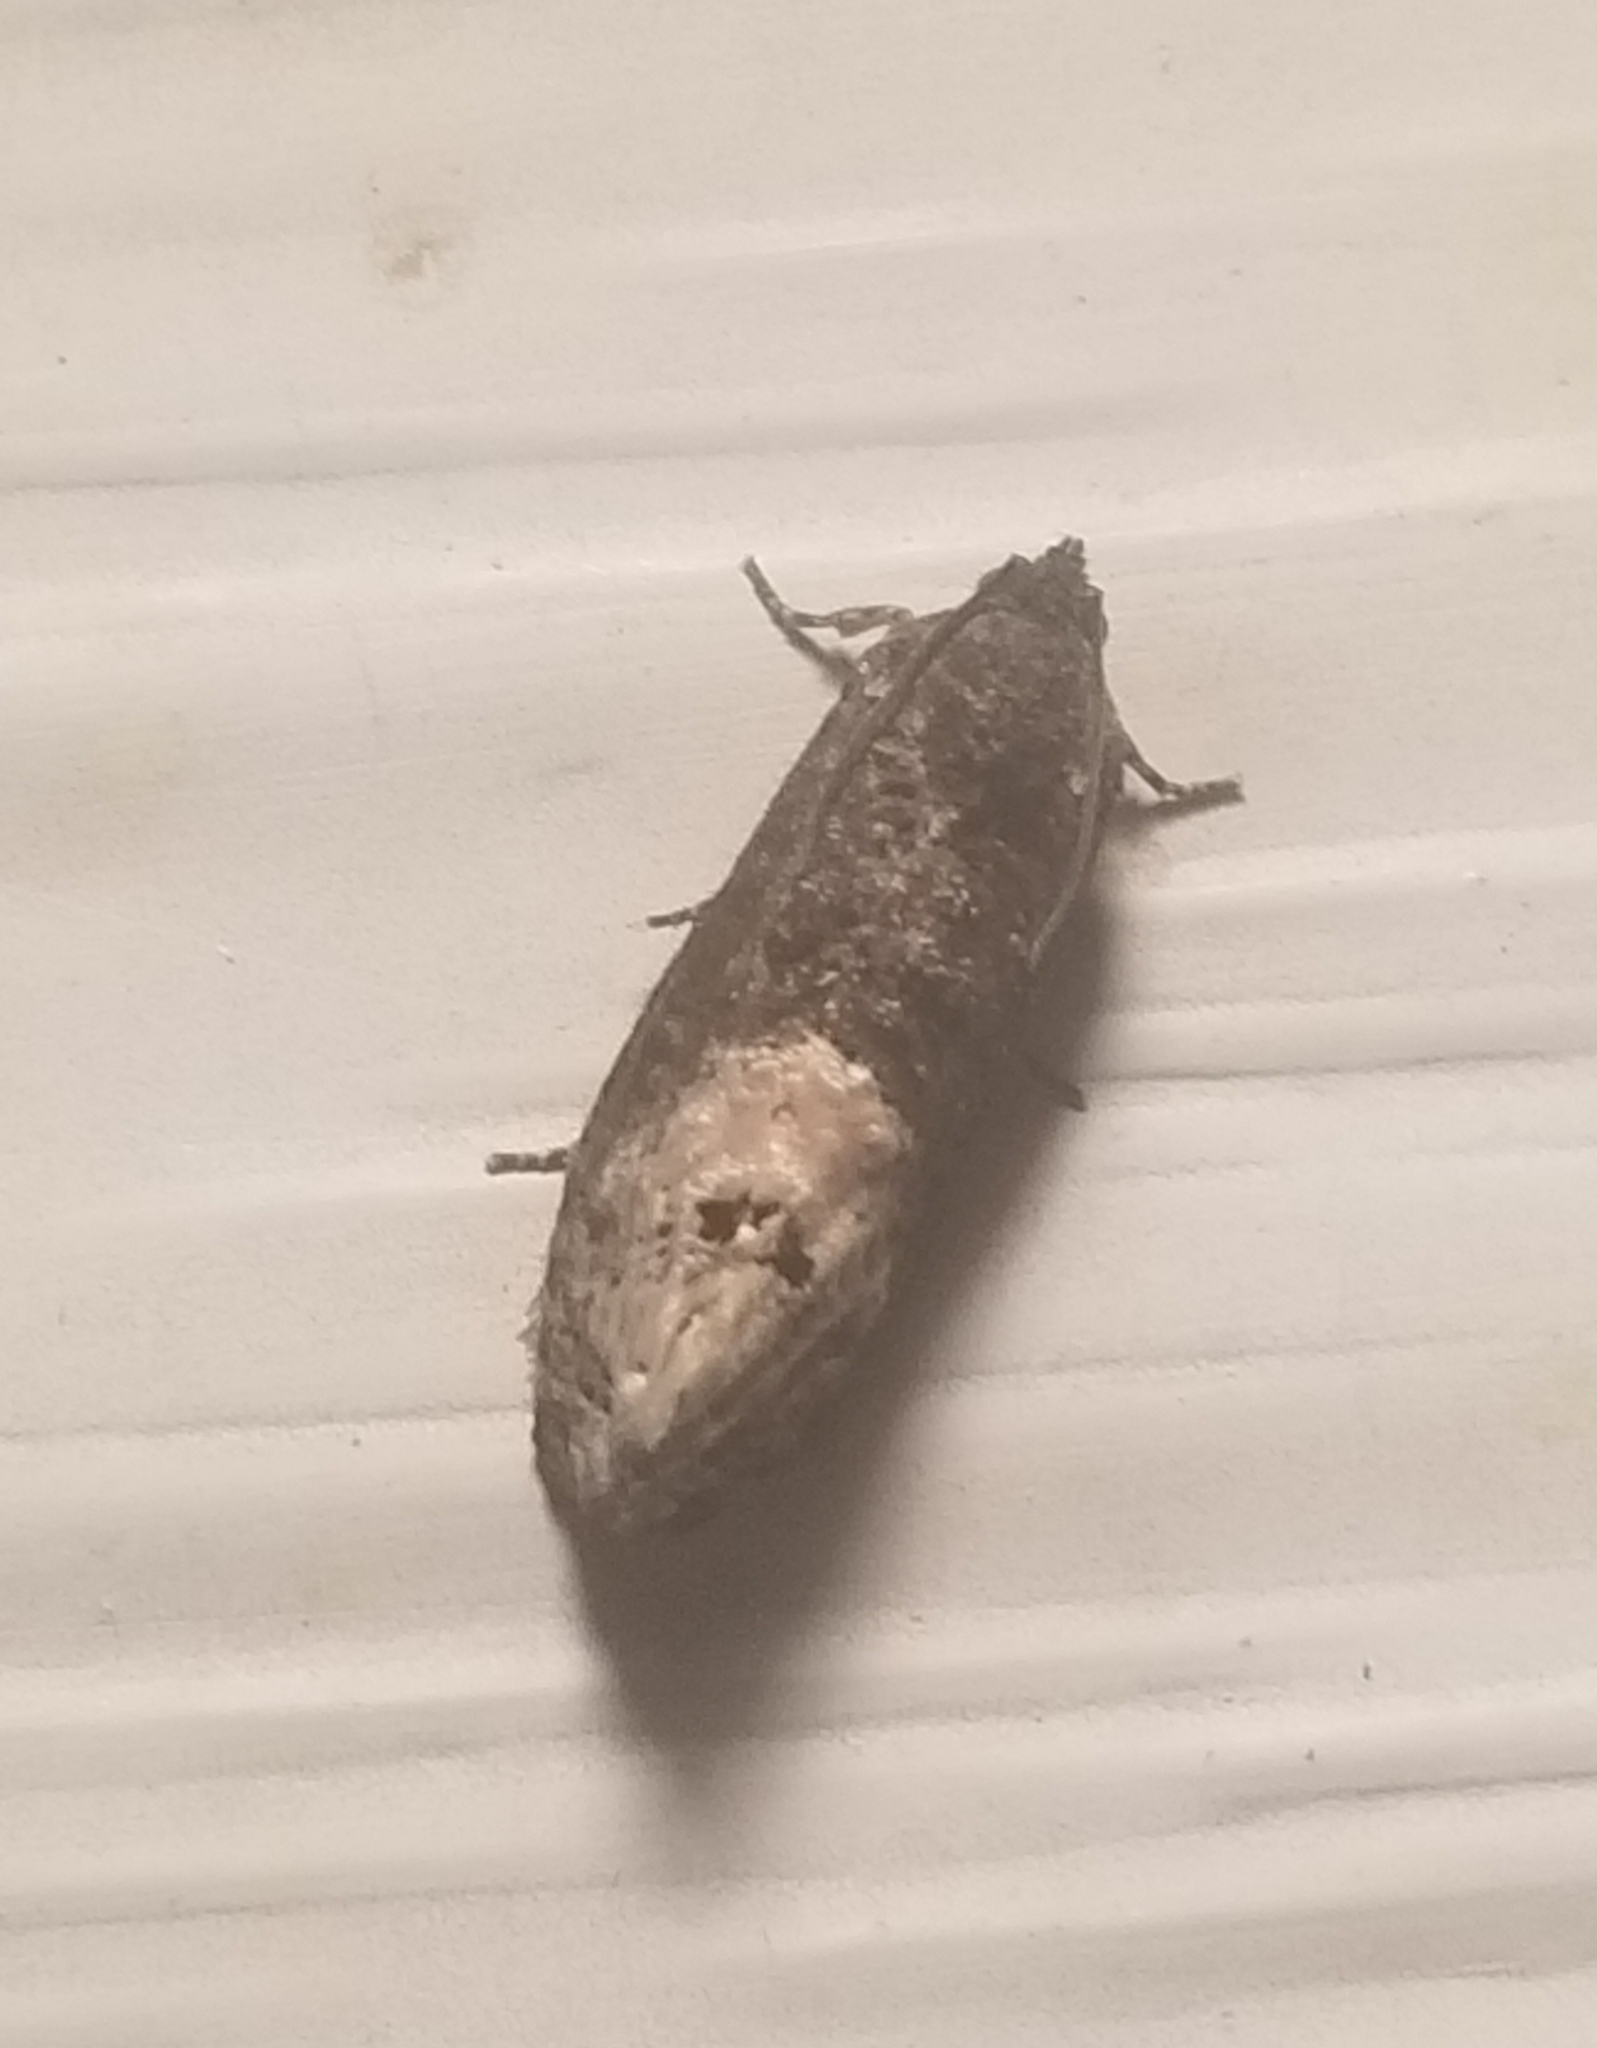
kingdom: Animalia
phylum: Arthropoda
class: Insecta
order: Lepidoptera
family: Tortricidae
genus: Ecdytolopha
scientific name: Ecdytolopha insiticiana
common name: Locust twig borer moth
